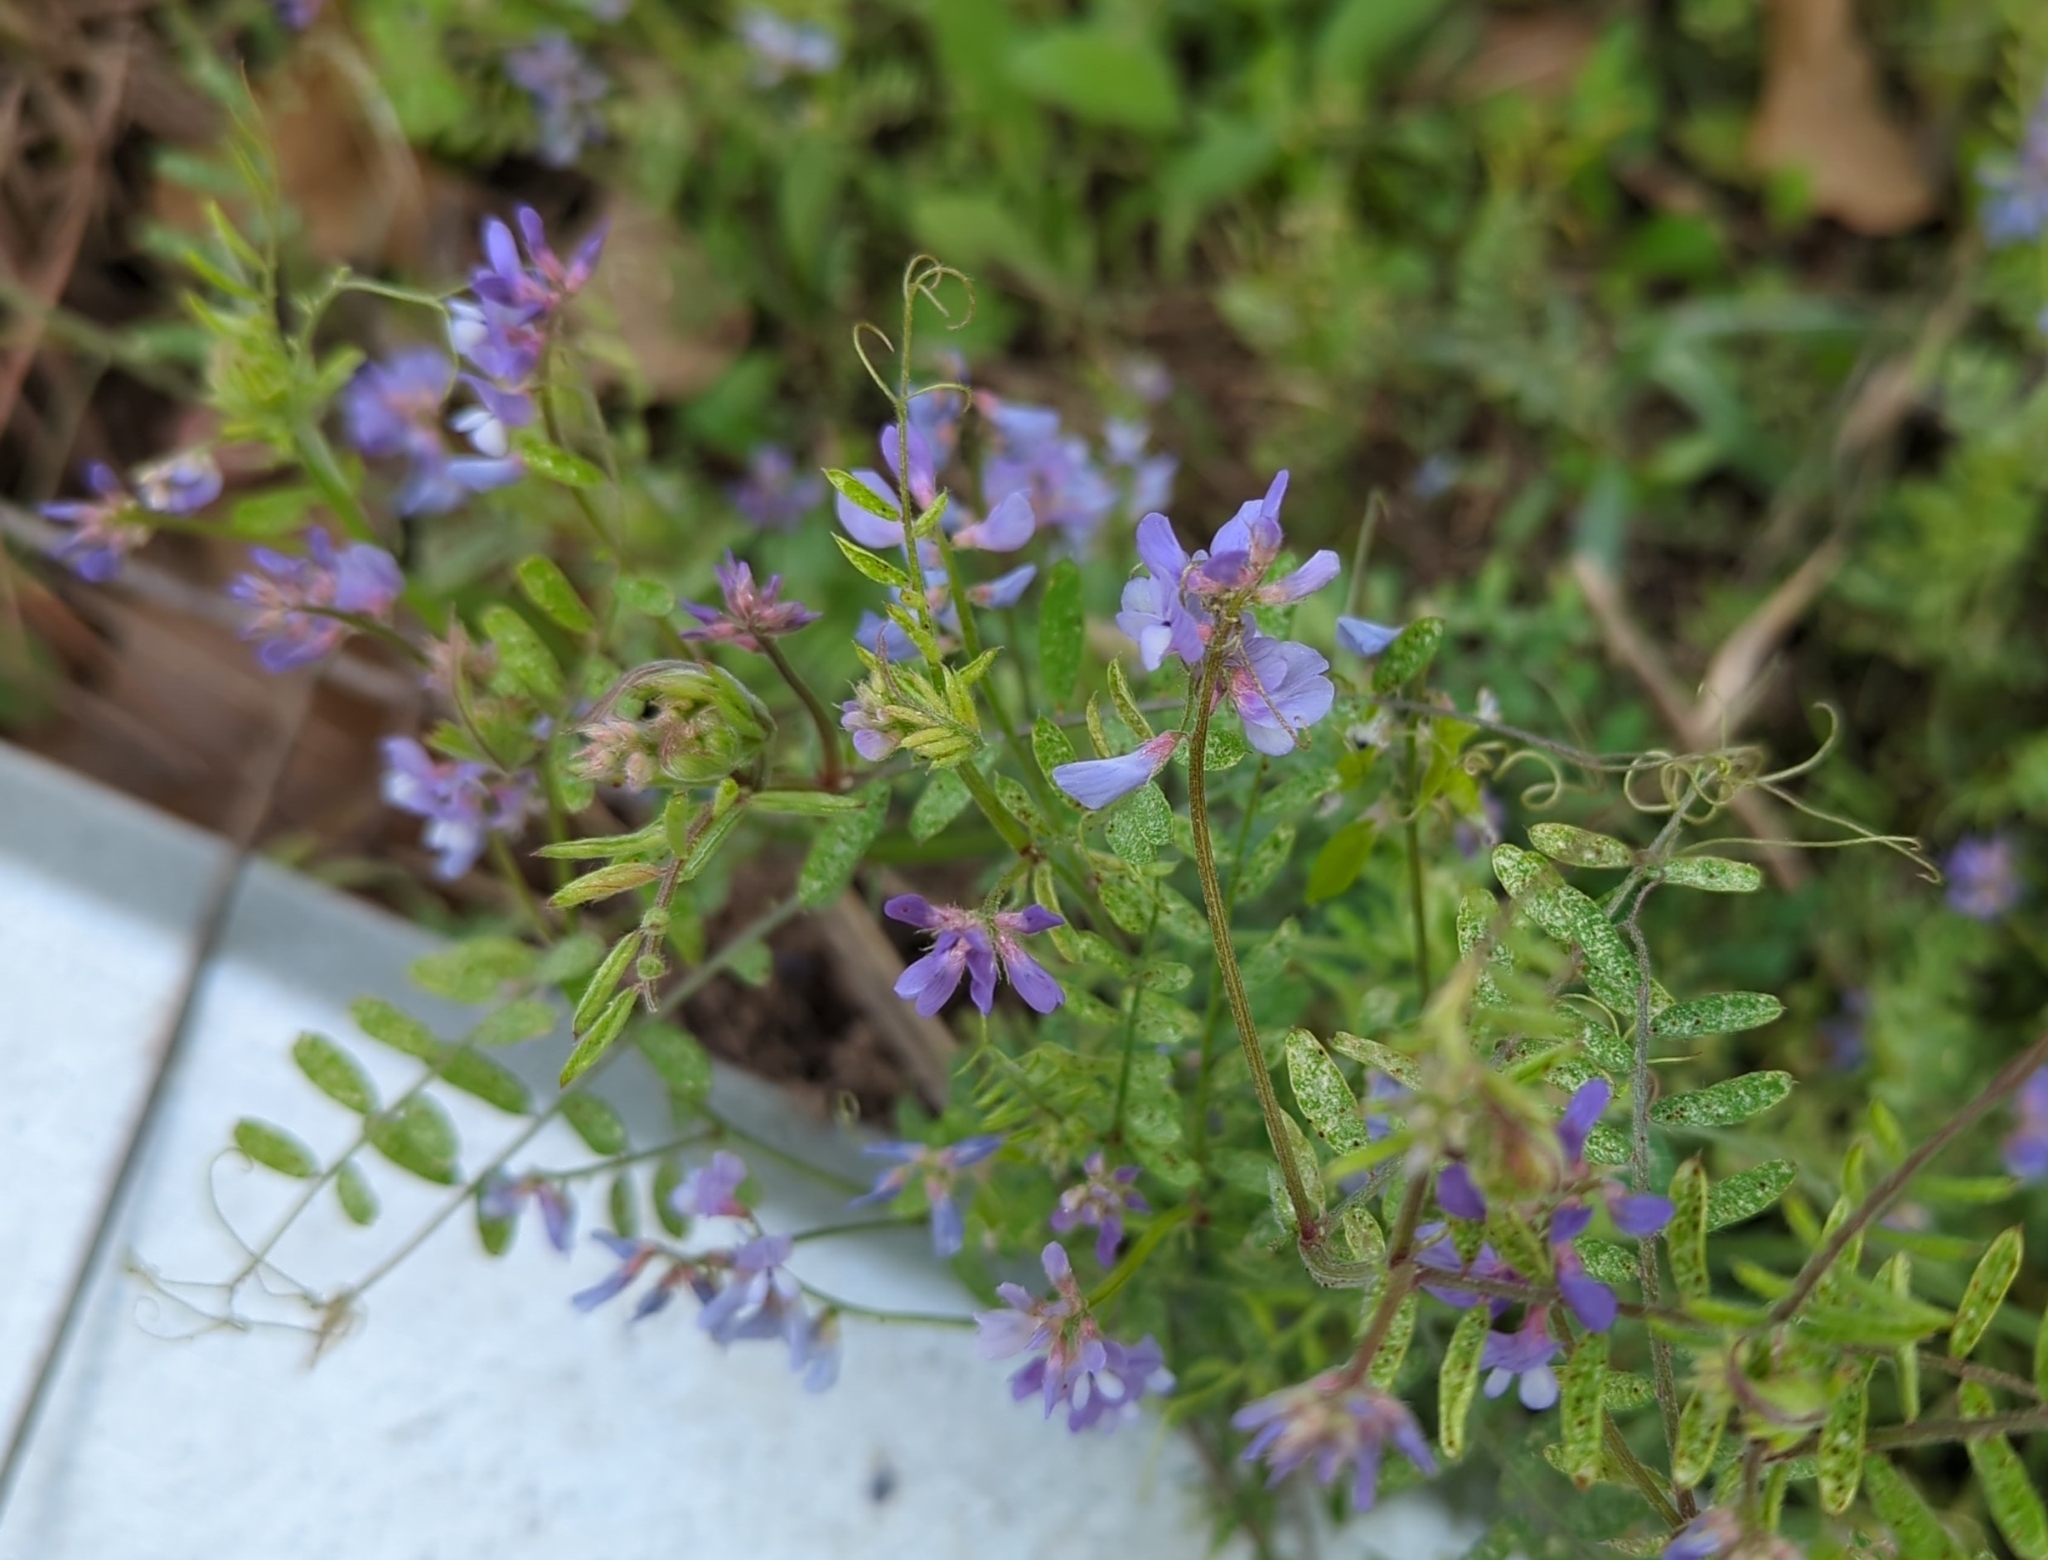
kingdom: Plantae
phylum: Tracheophyta
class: Magnoliopsida
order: Fabales
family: Fabaceae
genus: Vicia
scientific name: Vicia ludoviciana
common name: Louisiana vetch
